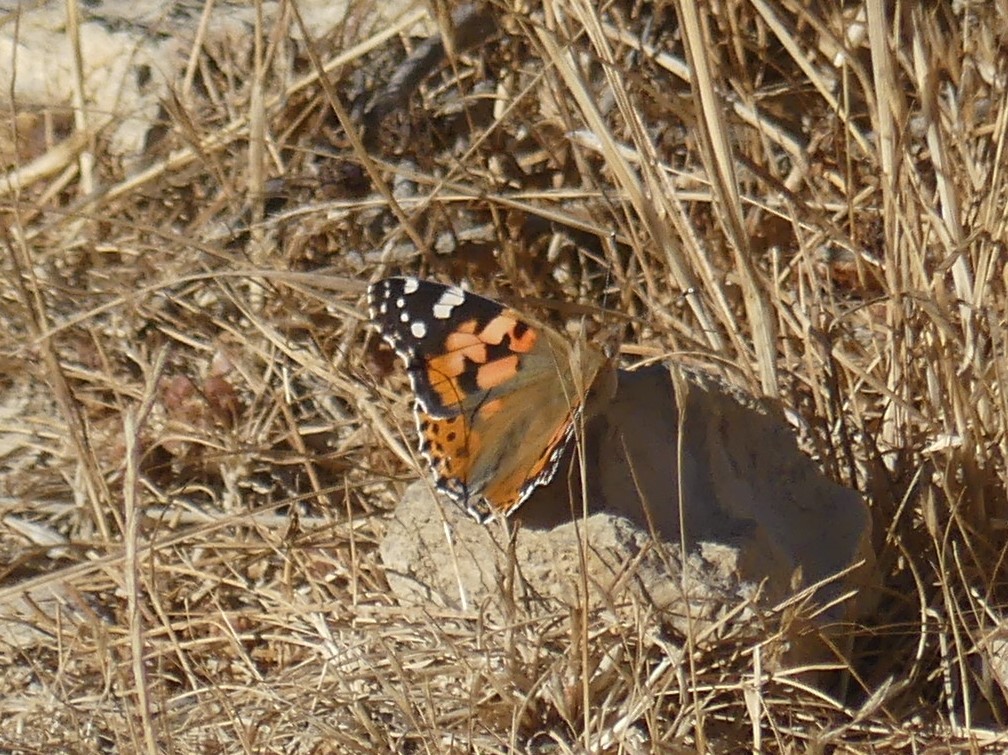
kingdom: Animalia
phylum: Arthropoda
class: Insecta
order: Lepidoptera
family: Nymphalidae
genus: Vanessa
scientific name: Vanessa cardui
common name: Painted lady
